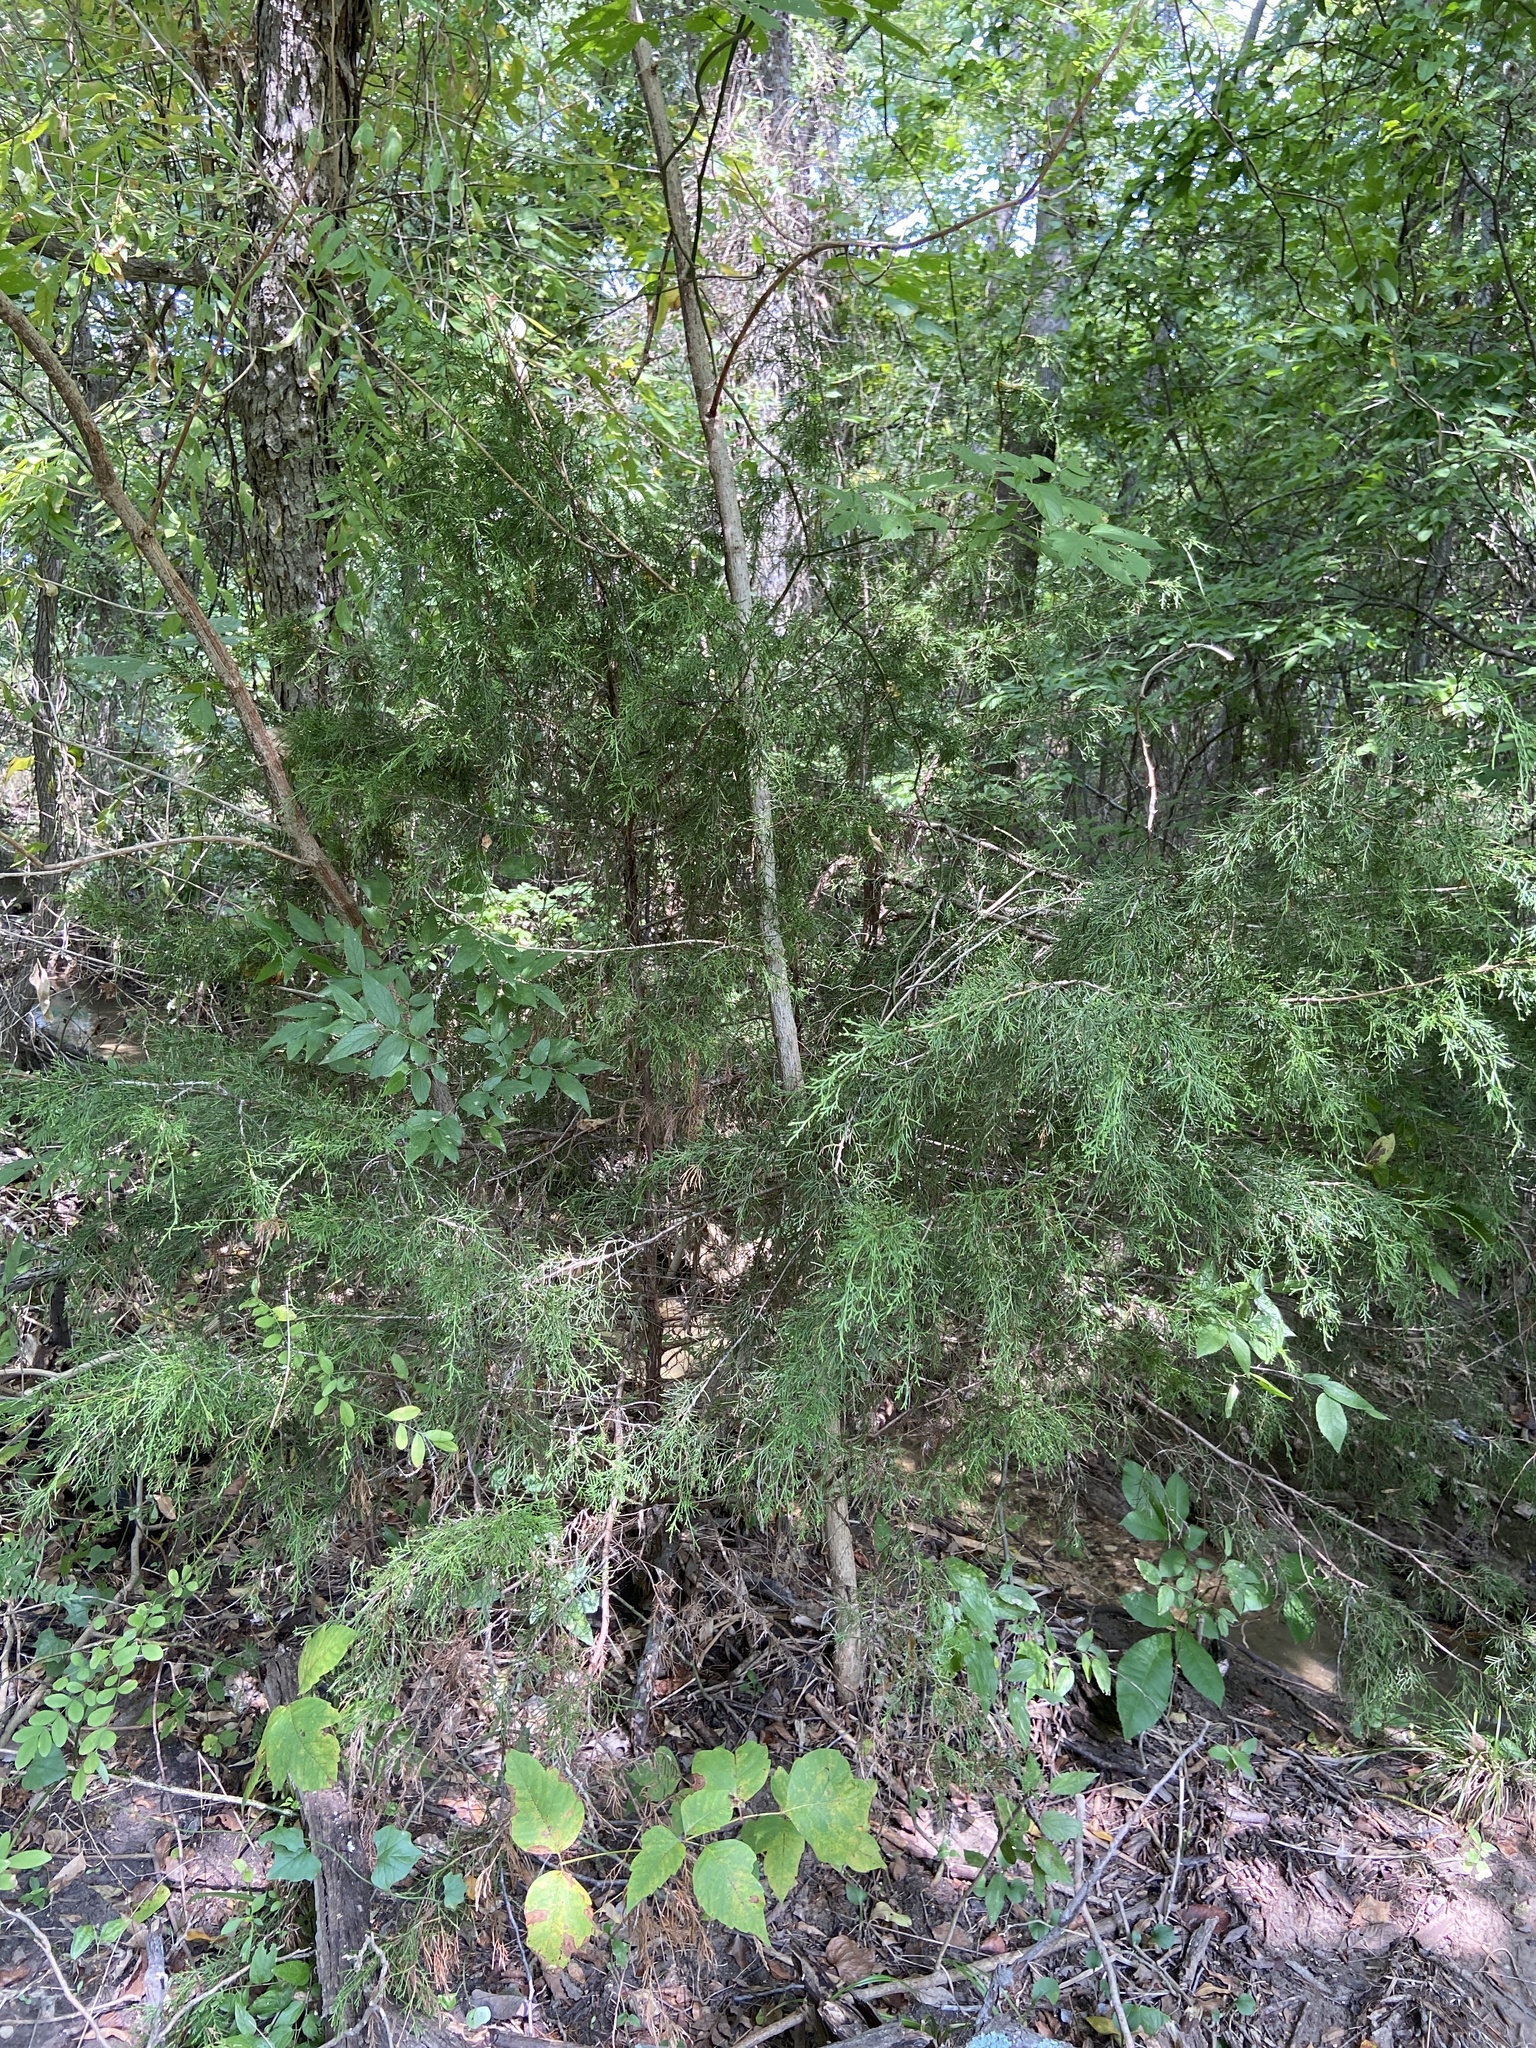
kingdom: Plantae
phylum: Tracheophyta
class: Pinopsida
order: Pinales
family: Cupressaceae
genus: Juniperus
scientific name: Juniperus virginiana
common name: Red juniper
